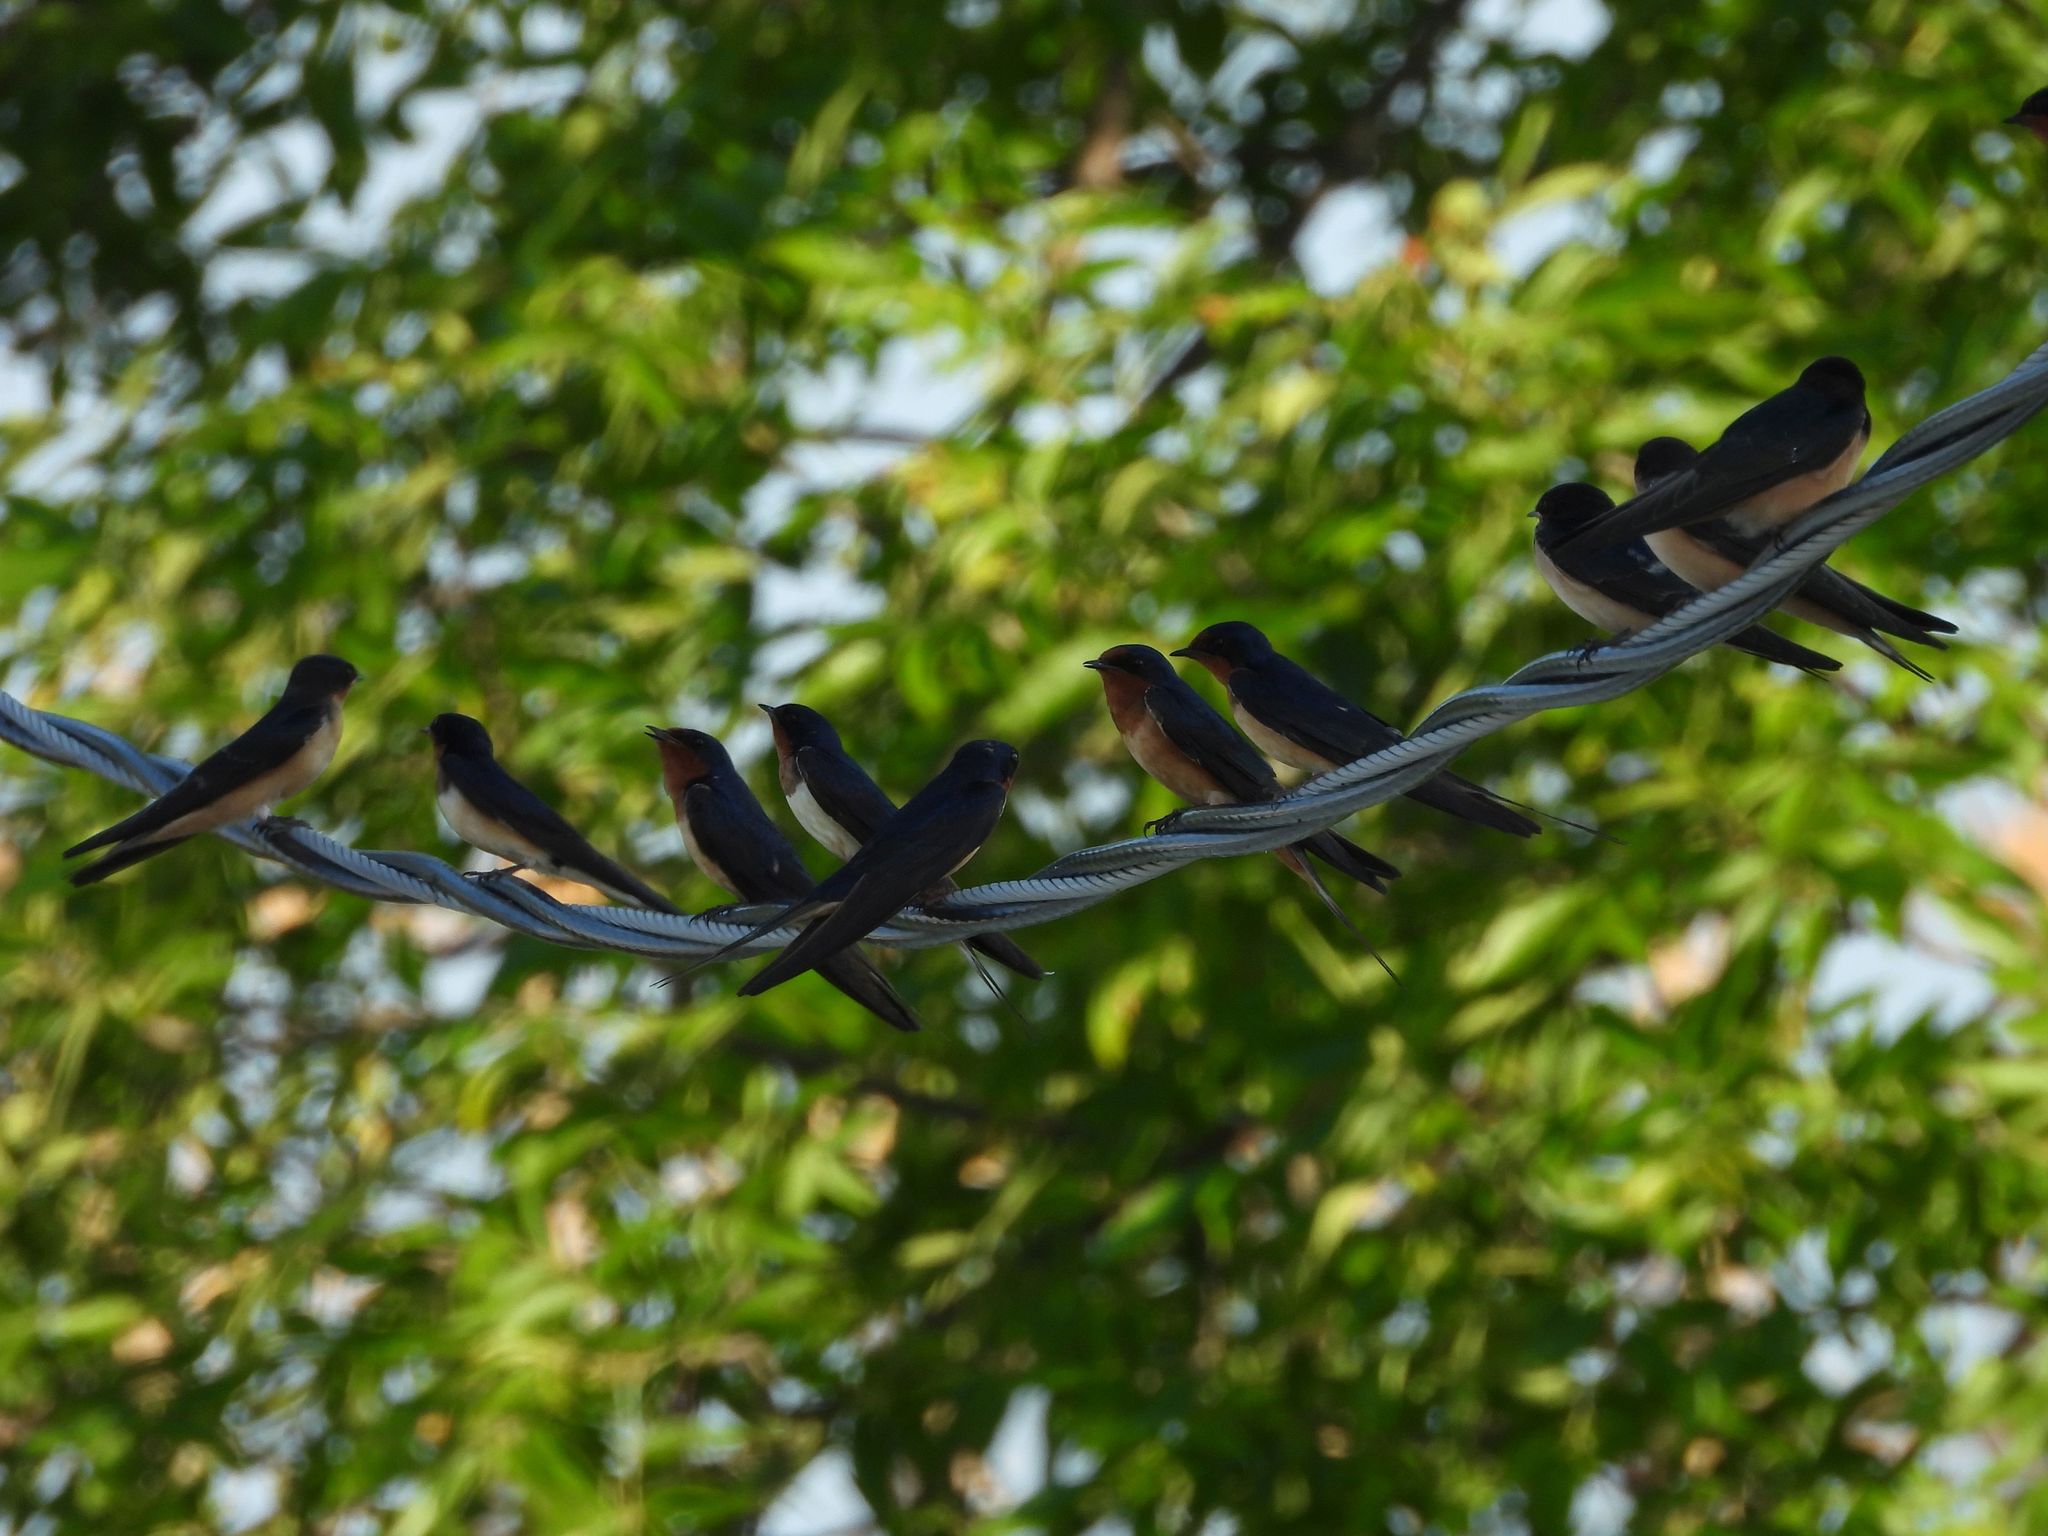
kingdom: Animalia
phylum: Chordata
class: Aves
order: Passeriformes
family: Hirundinidae
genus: Hirundo
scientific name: Hirundo rustica
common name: Barn swallow
